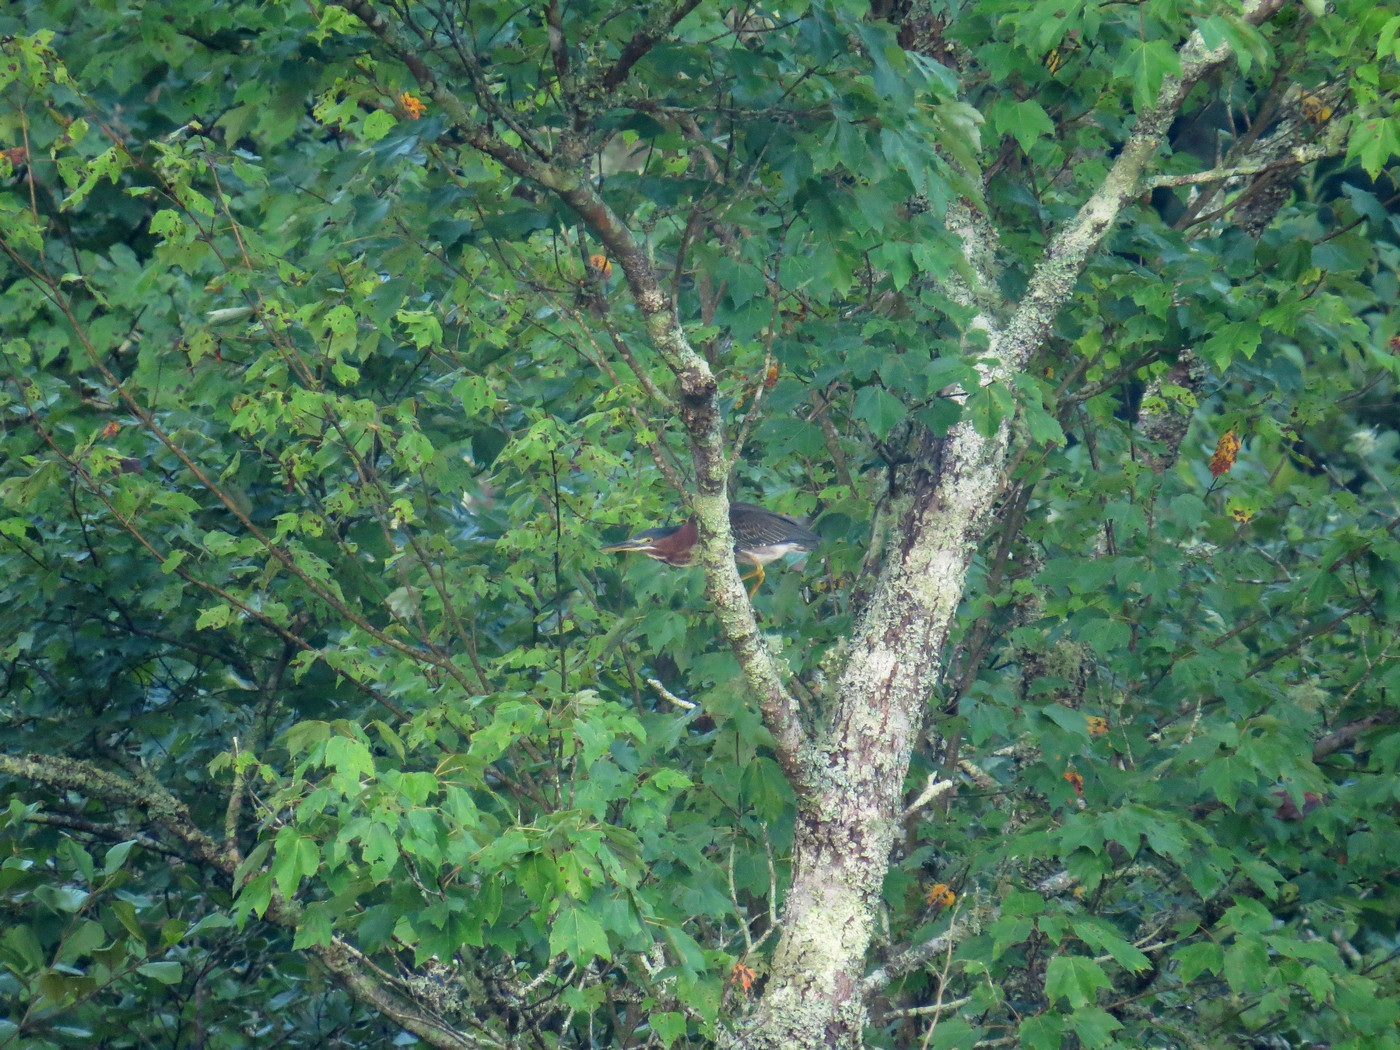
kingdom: Animalia
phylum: Chordata
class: Aves
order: Pelecaniformes
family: Ardeidae
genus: Butorides
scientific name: Butorides virescens
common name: Green heron
